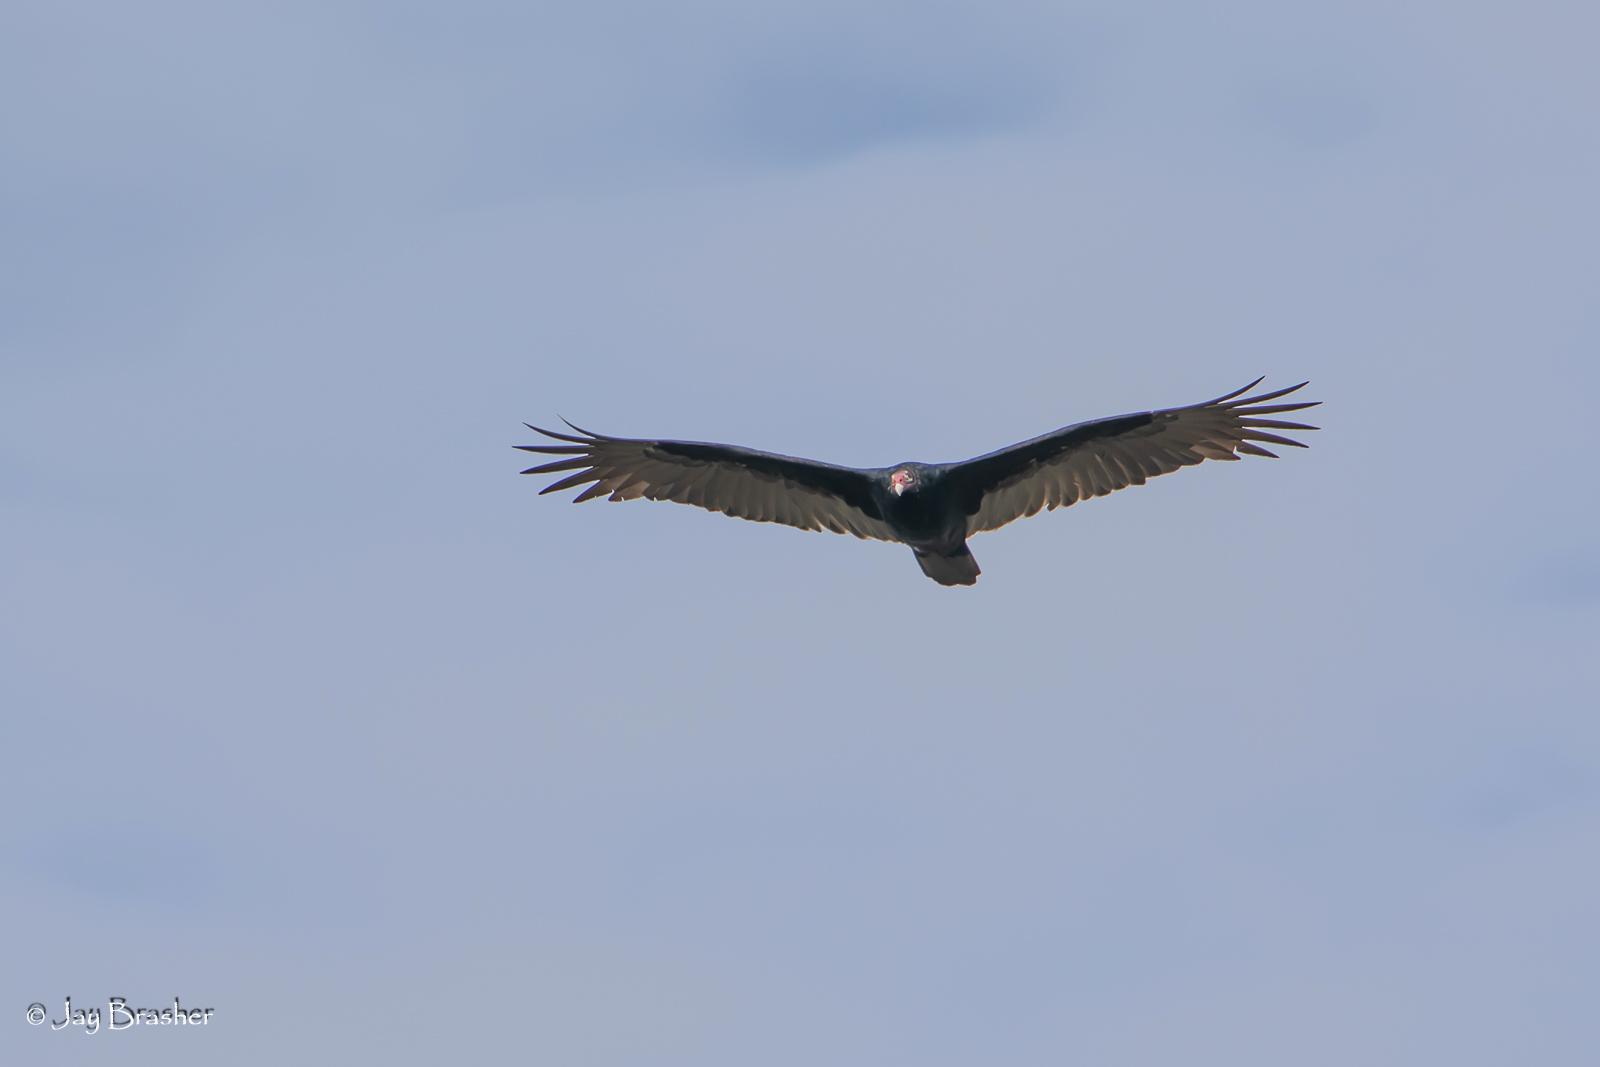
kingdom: Animalia
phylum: Chordata
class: Aves
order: Accipitriformes
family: Cathartidae
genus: Cathartes
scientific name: Cathartes aura
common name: Turkey vulture
